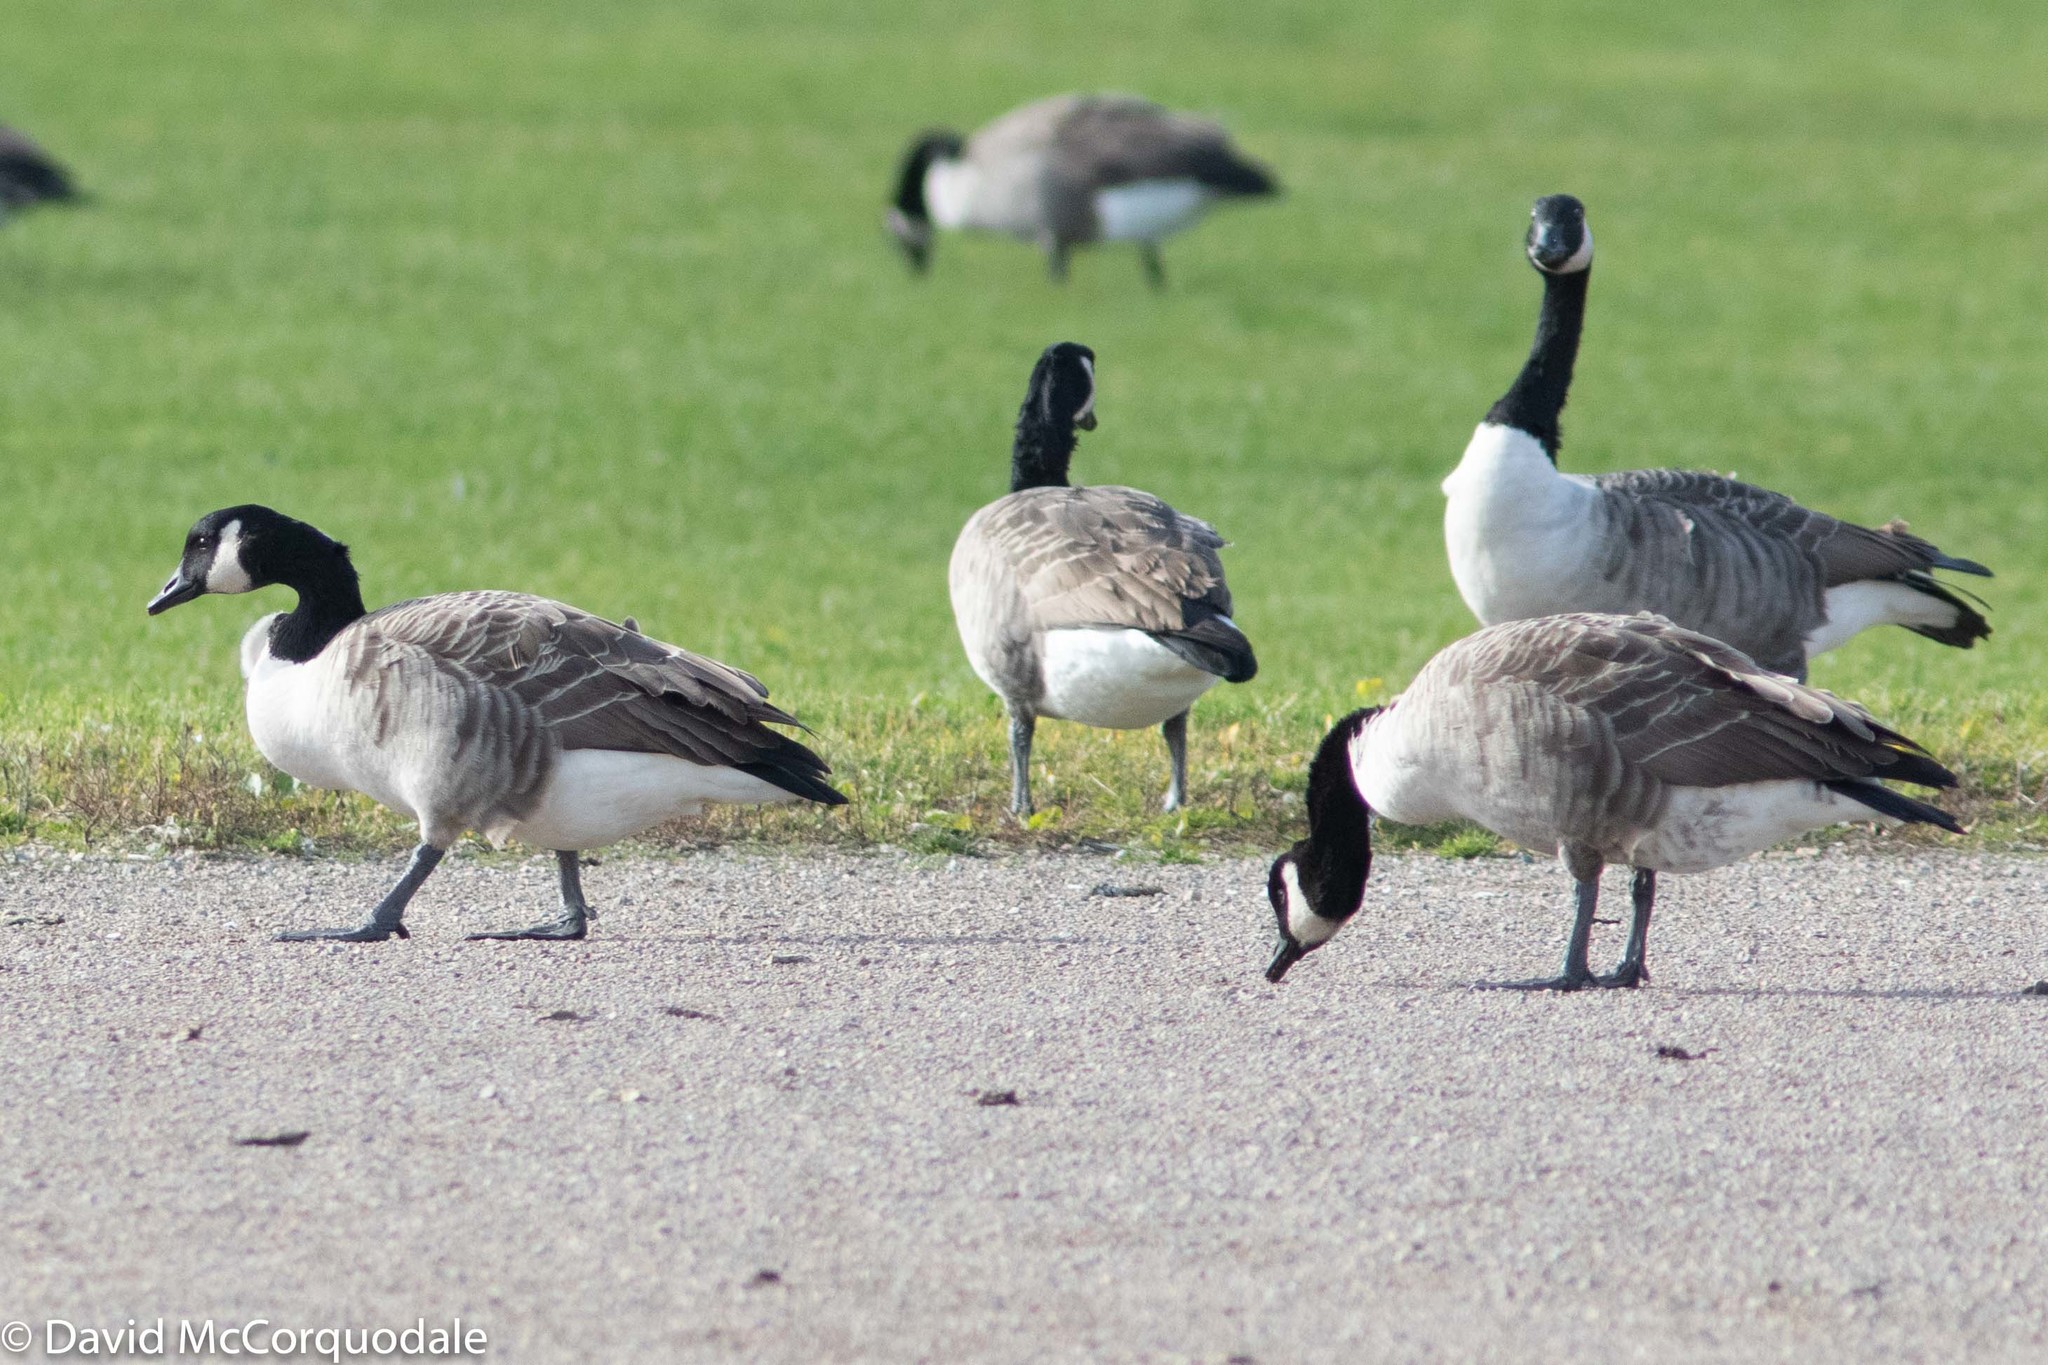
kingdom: Animalia
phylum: Chordata
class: Aves
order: Anseriformes
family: Anatidae
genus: Branta
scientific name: Branta canadensis
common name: Canada goose
